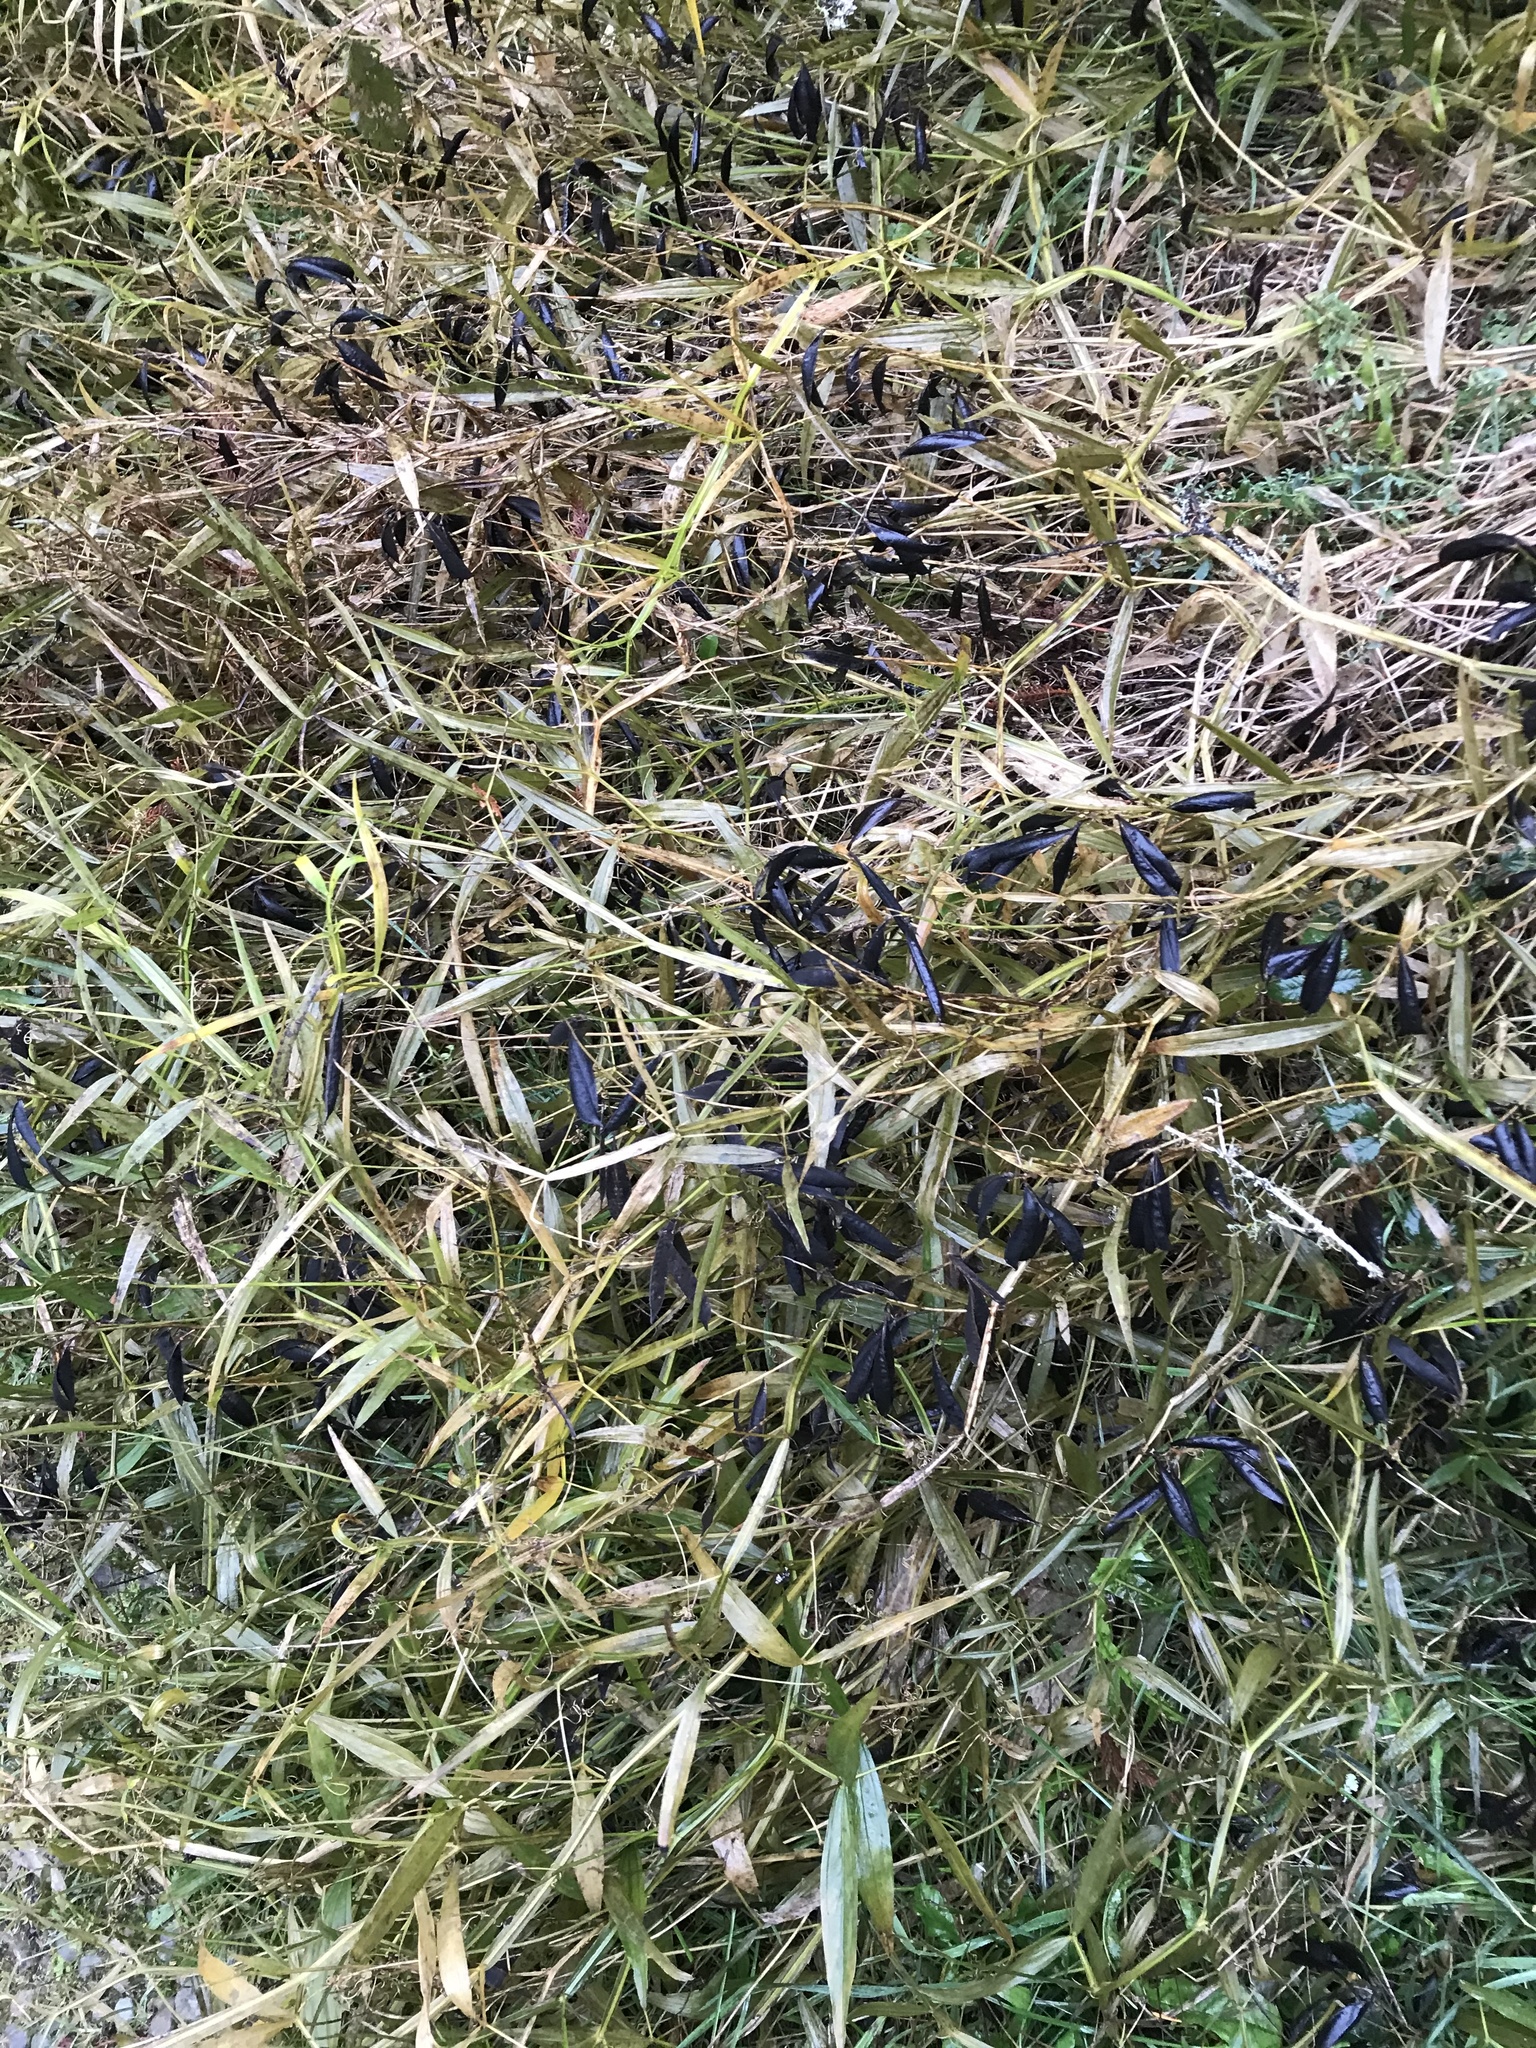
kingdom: Plantae
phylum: Tracheophyta
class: Magnoliopsida
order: Fabales
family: Fabaceae
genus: Lathyrus
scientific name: Lathyrus sylvestris
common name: Flat pea
